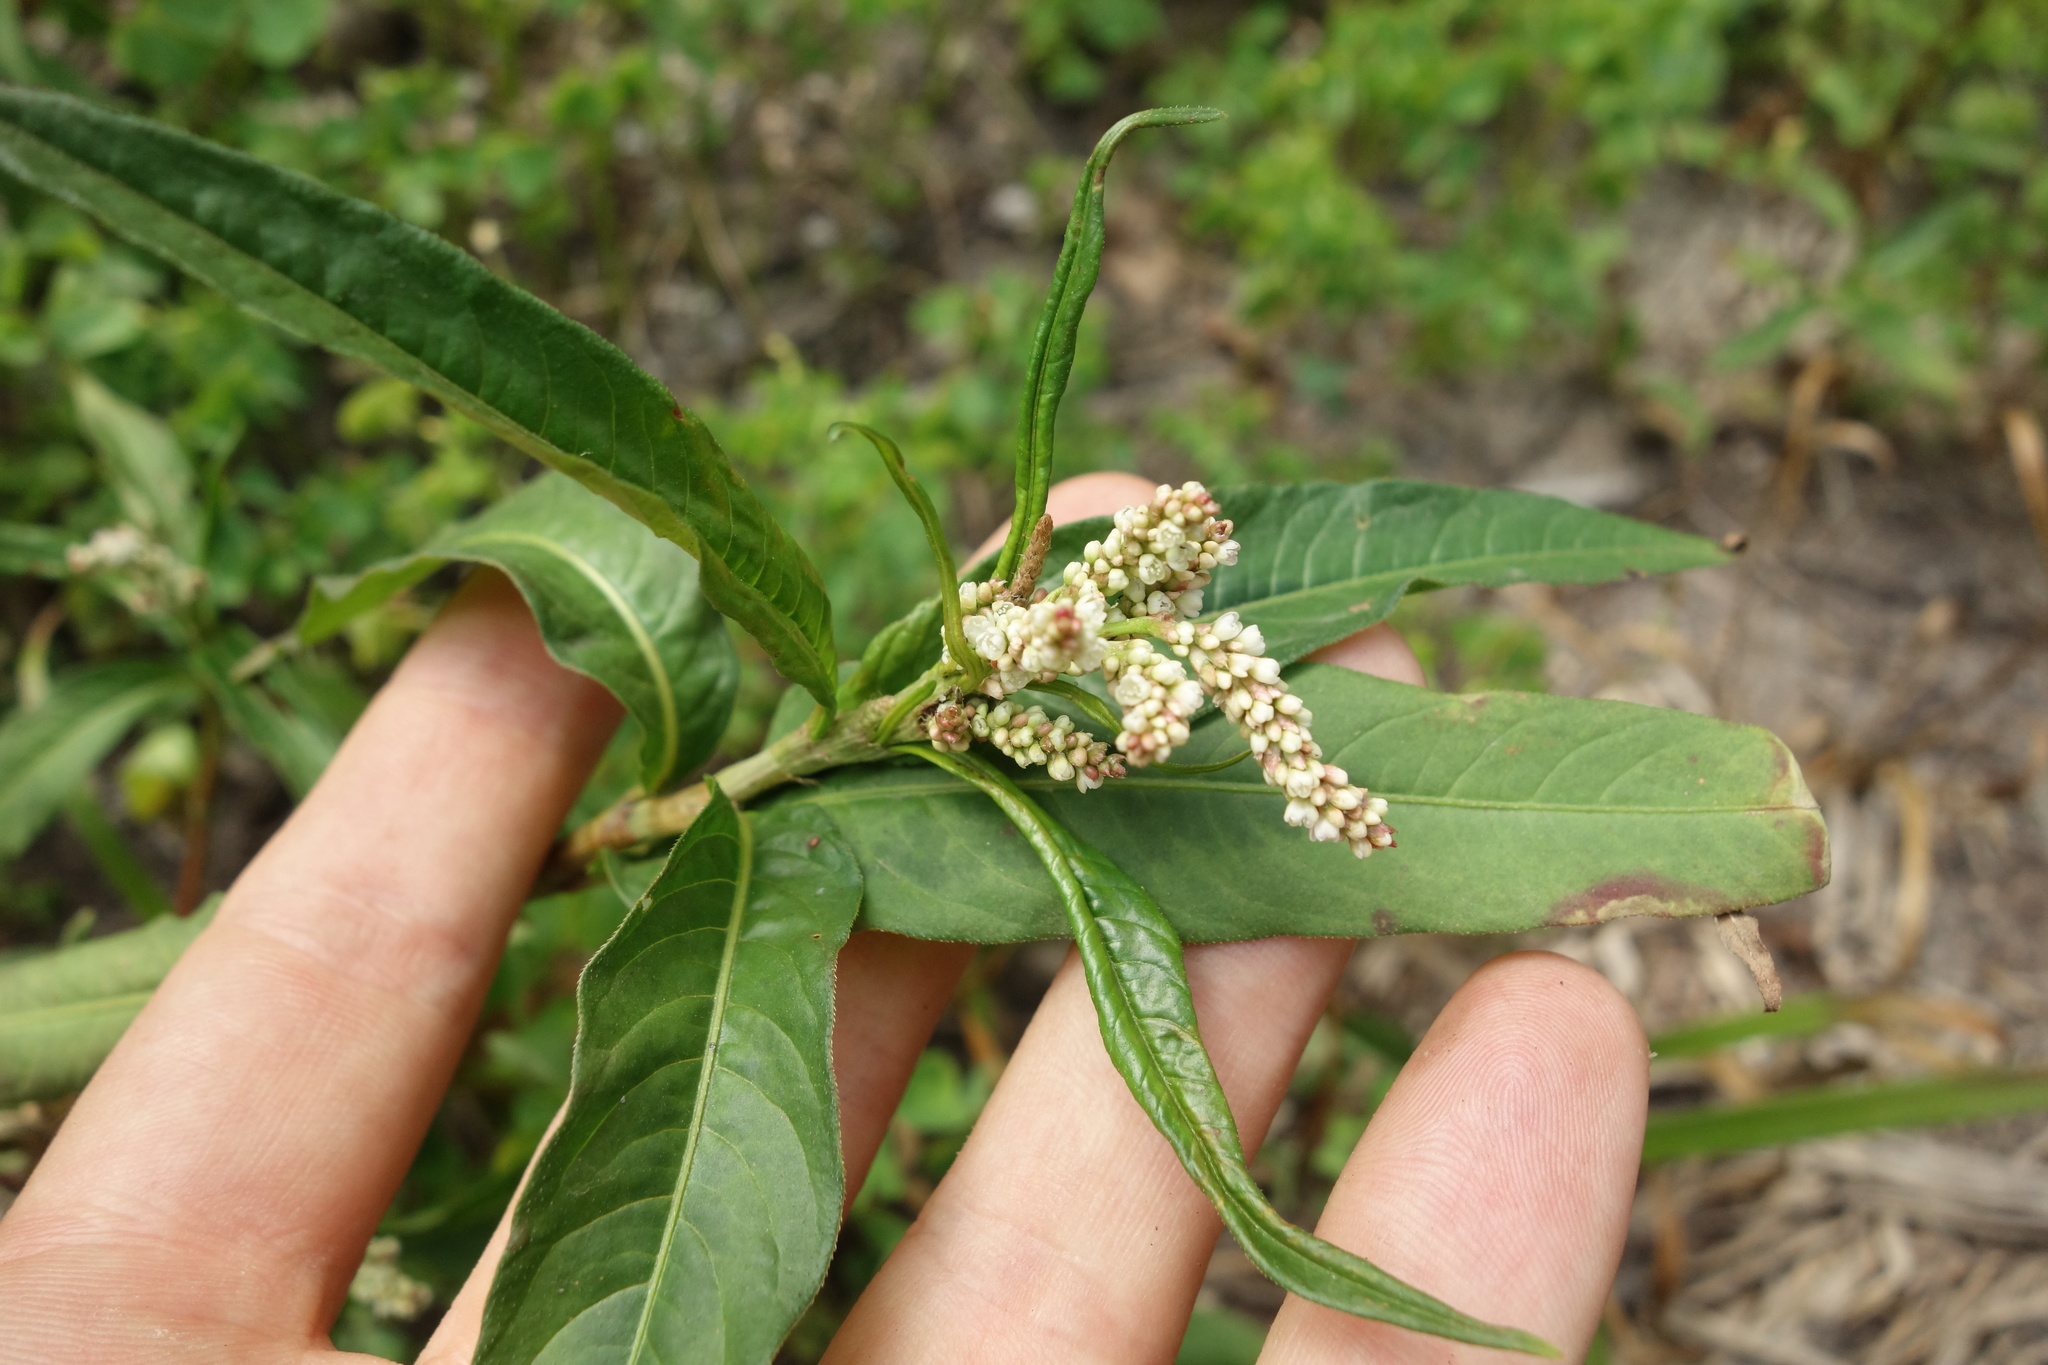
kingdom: Plantae
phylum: Tracheophyta
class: Magnoliopsida
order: Caryophyllales
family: Polygonaceae
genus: Persicaria
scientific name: Persicaria lapathifolia
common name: Curlytop knotweed
